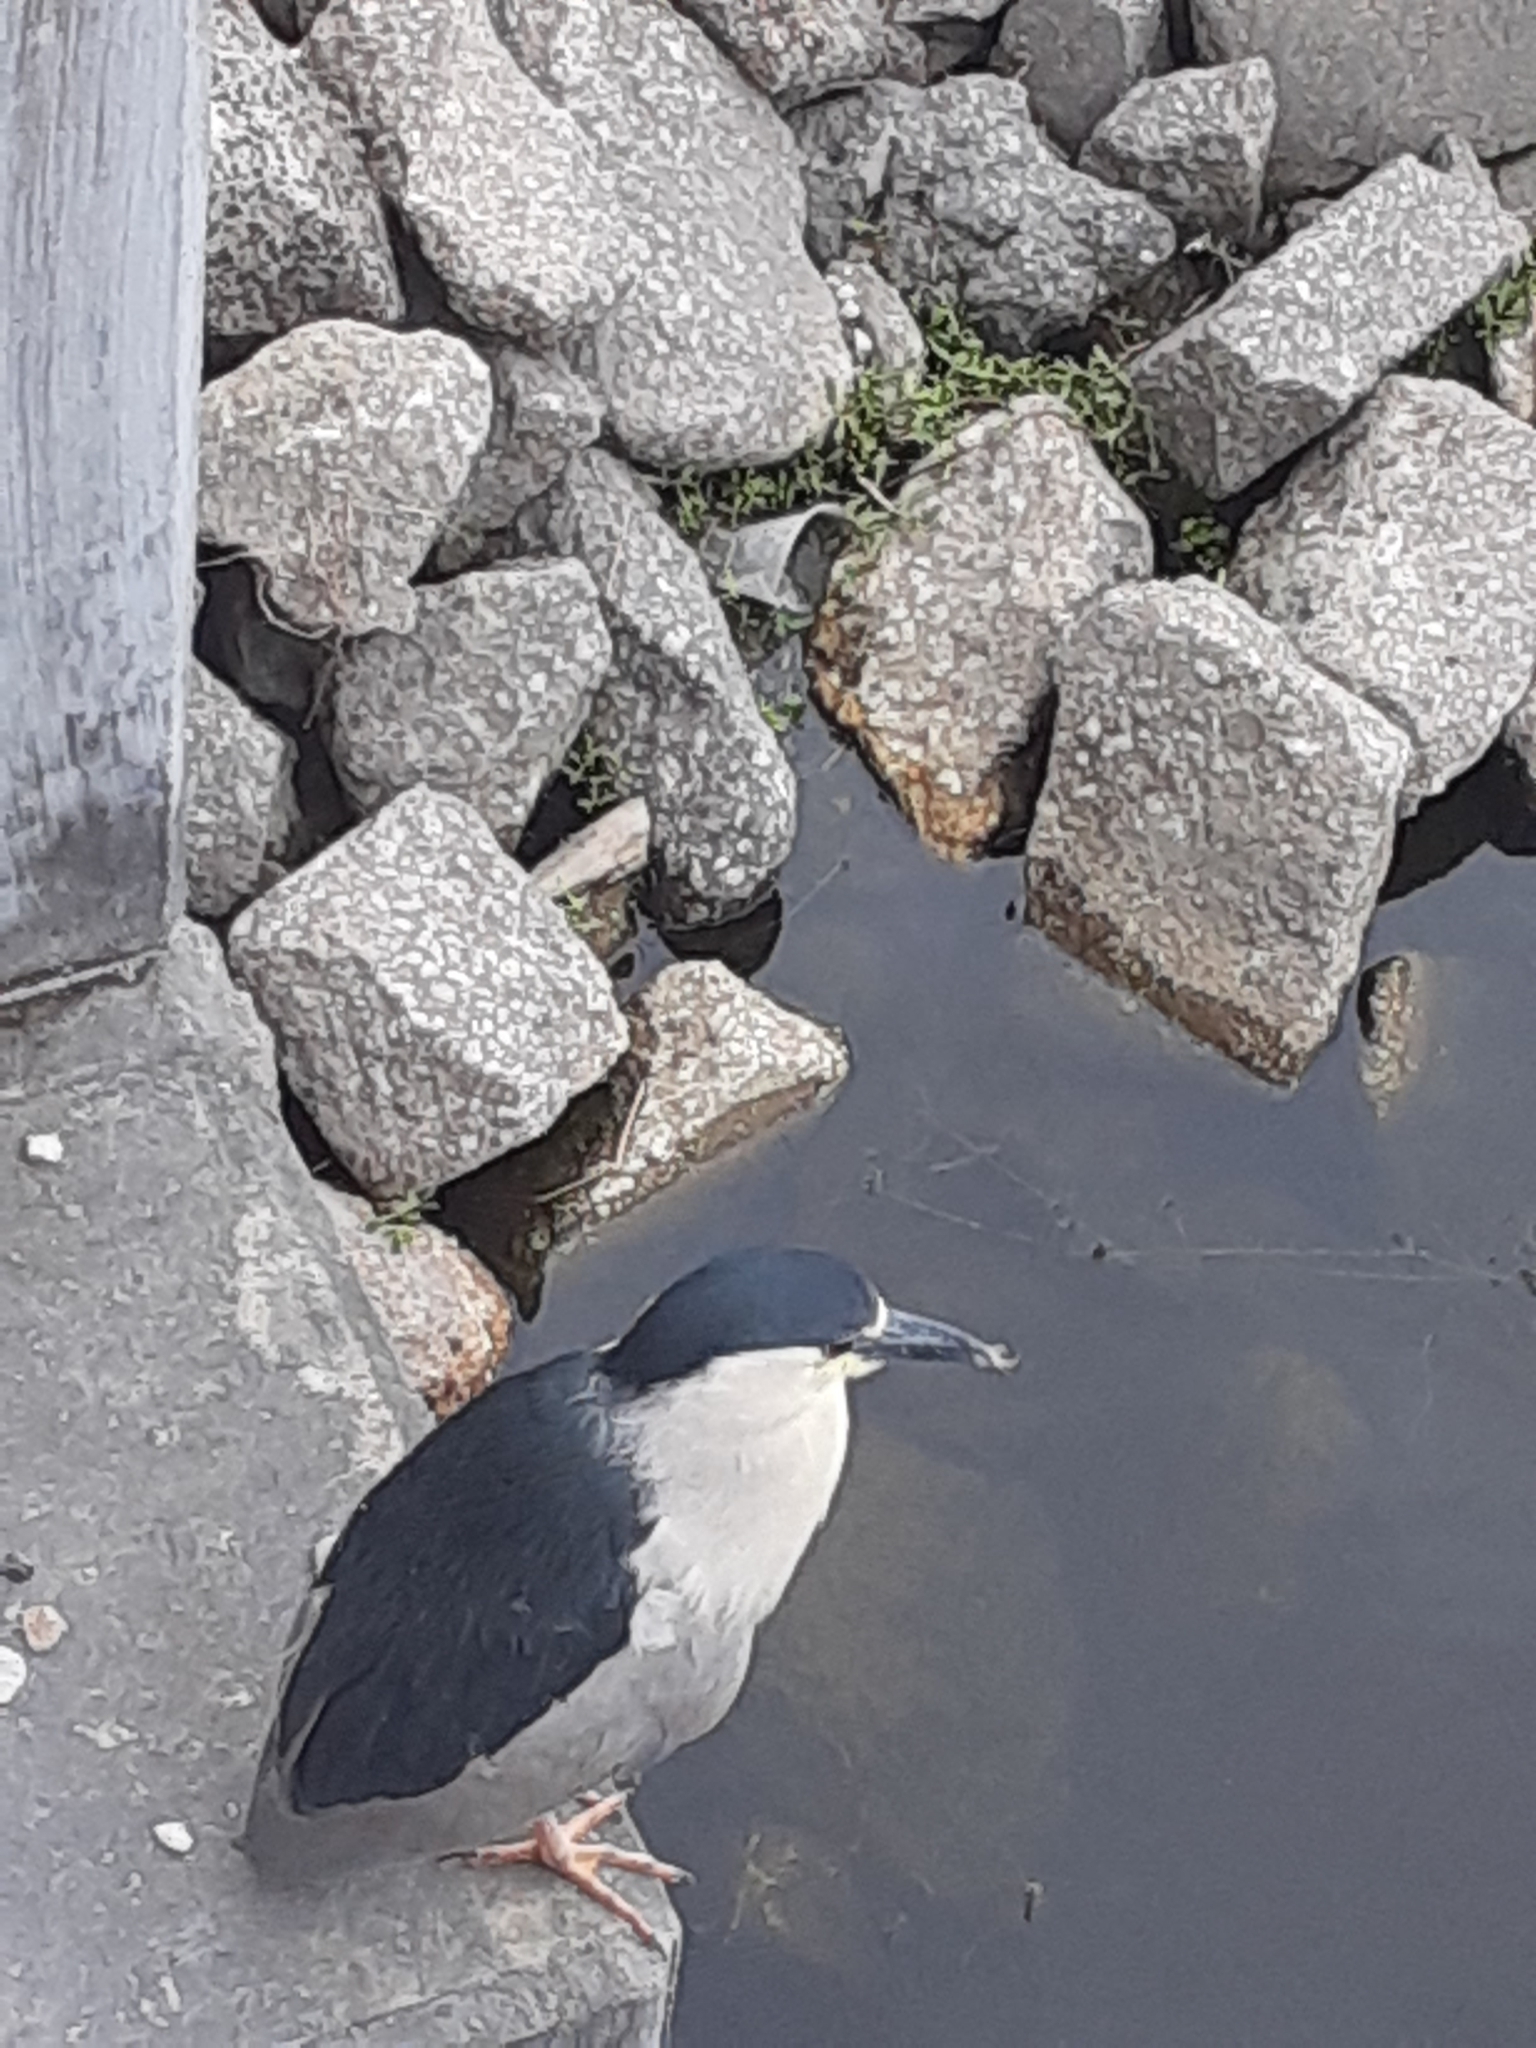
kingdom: Animalia
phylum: Chordata
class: Aves
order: Pelecaniformes
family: Ardeidae
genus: Nycticorax
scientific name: Nycticorax nycticorax
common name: Black-crowned night heron
